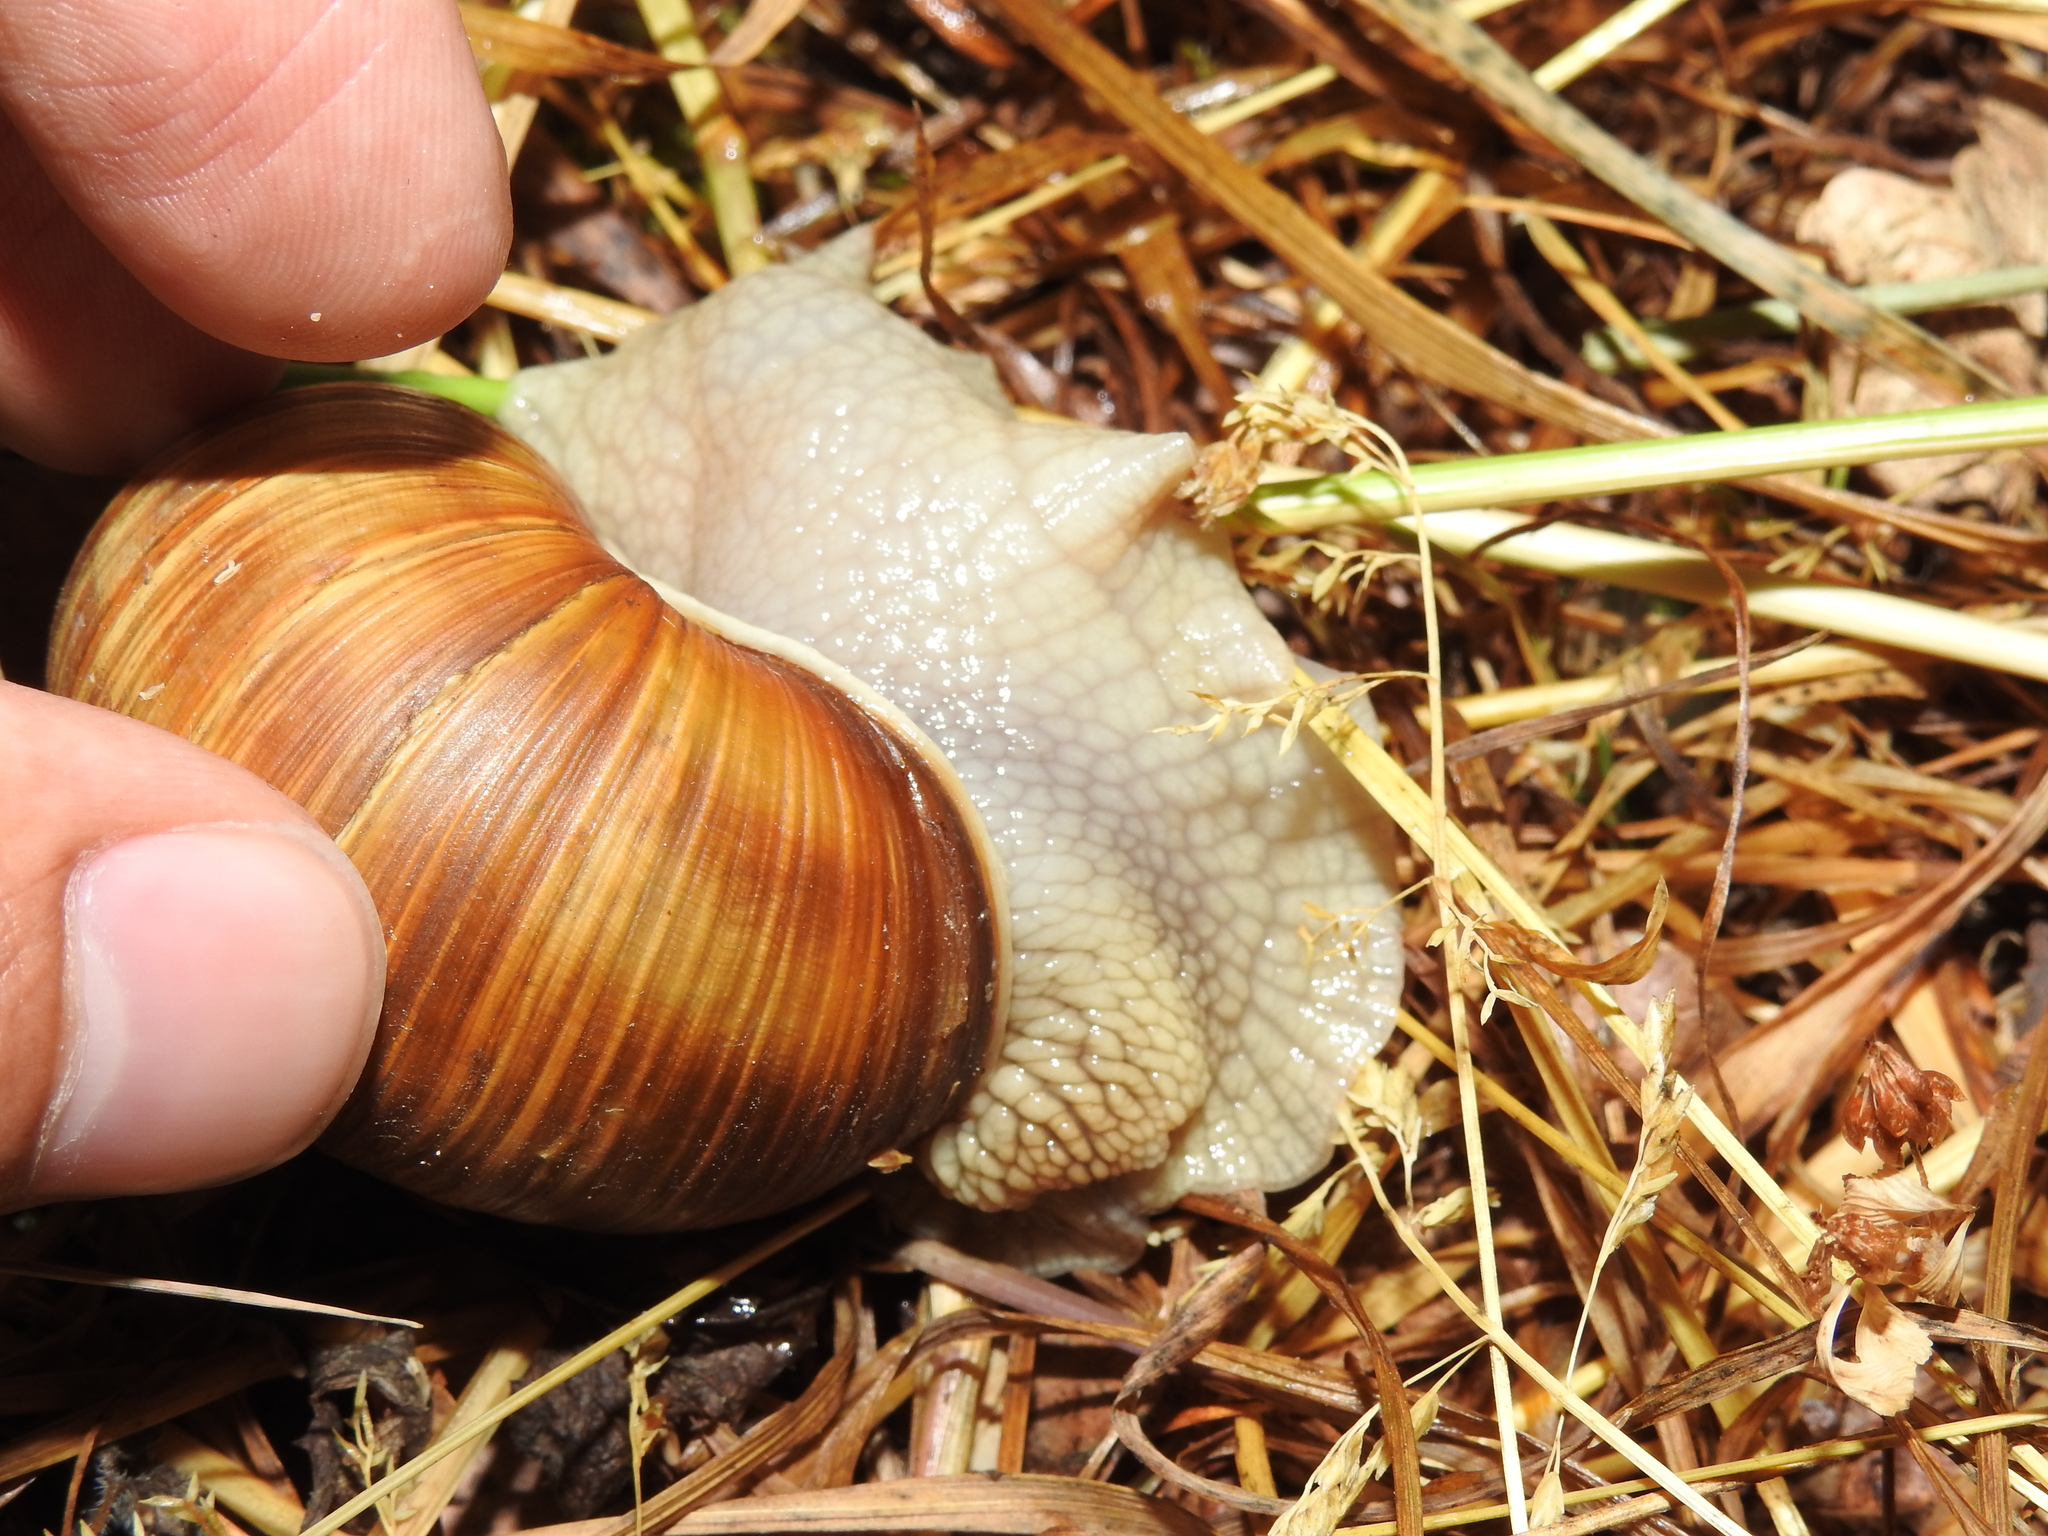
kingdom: Animalia
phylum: Mollusca
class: Gastropoda
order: Stylommatophora
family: Helicidae
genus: Helix
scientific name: Helix pomatia
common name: Roman snail
